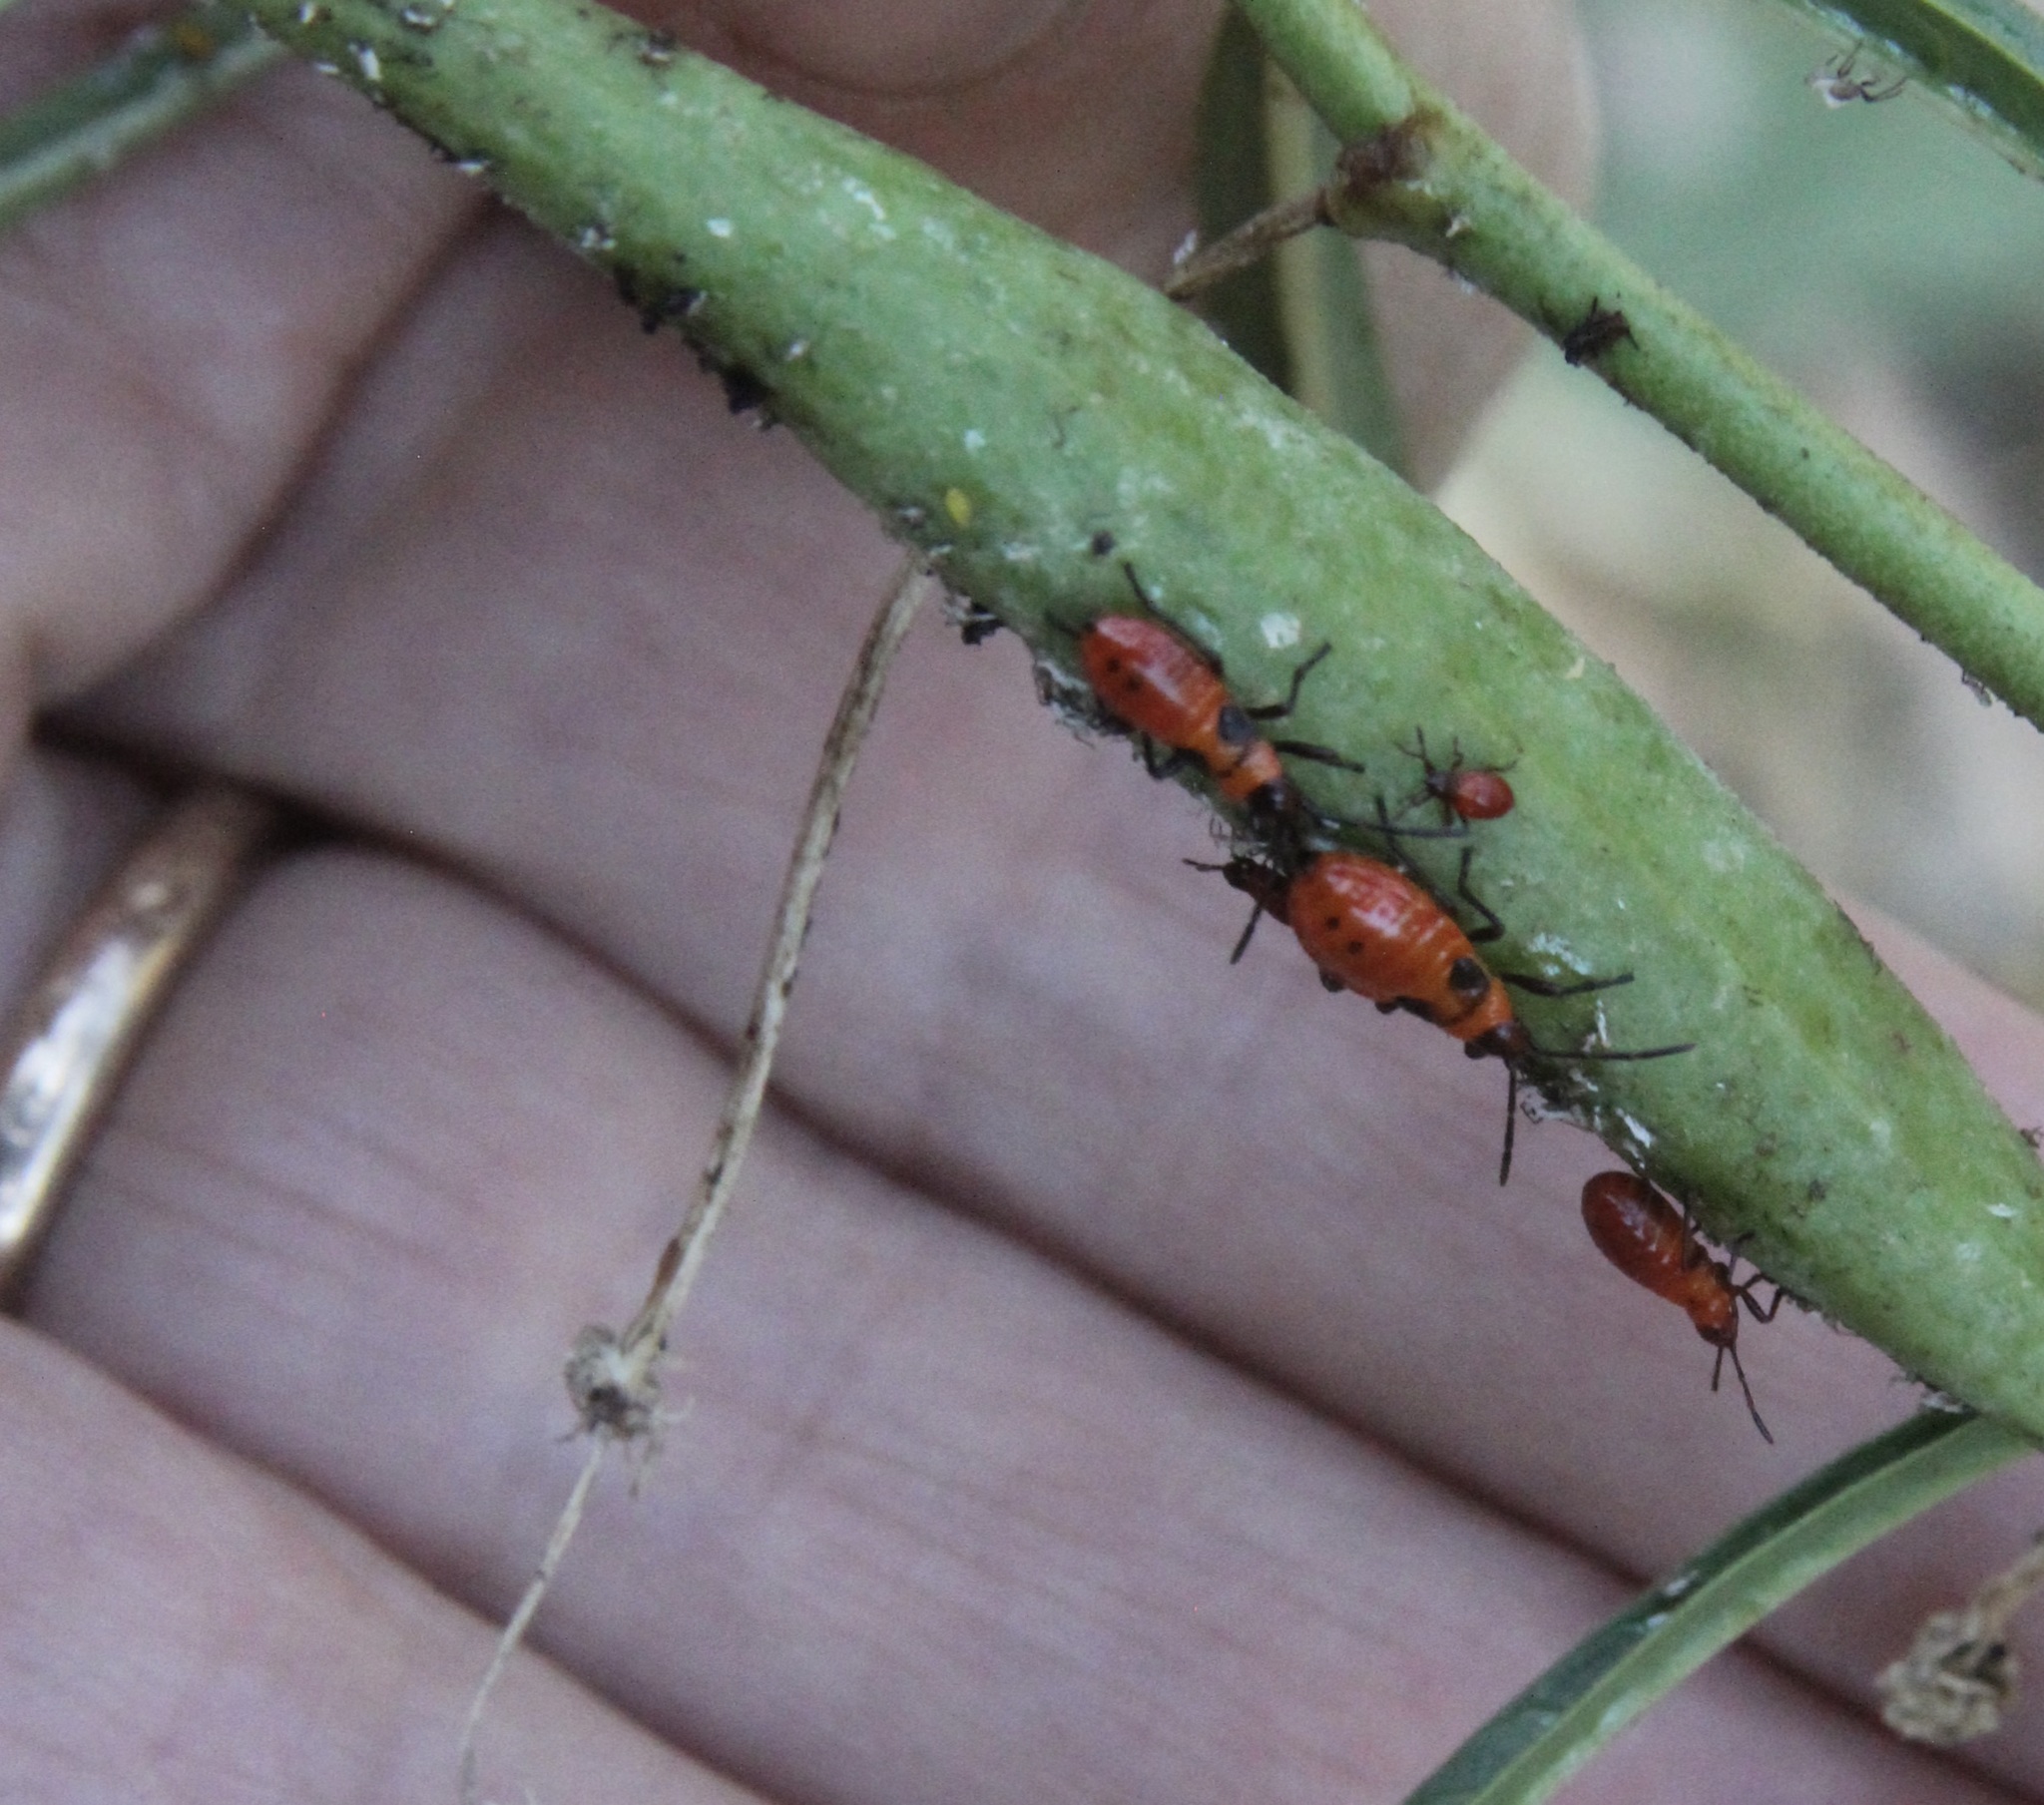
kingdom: Animalia
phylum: Arthropoda
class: Insecta
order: Hemiptera
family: Lygaeidae
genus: Oncopeltus
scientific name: Oncopeltus fasciatus
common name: Large milkweed bug
